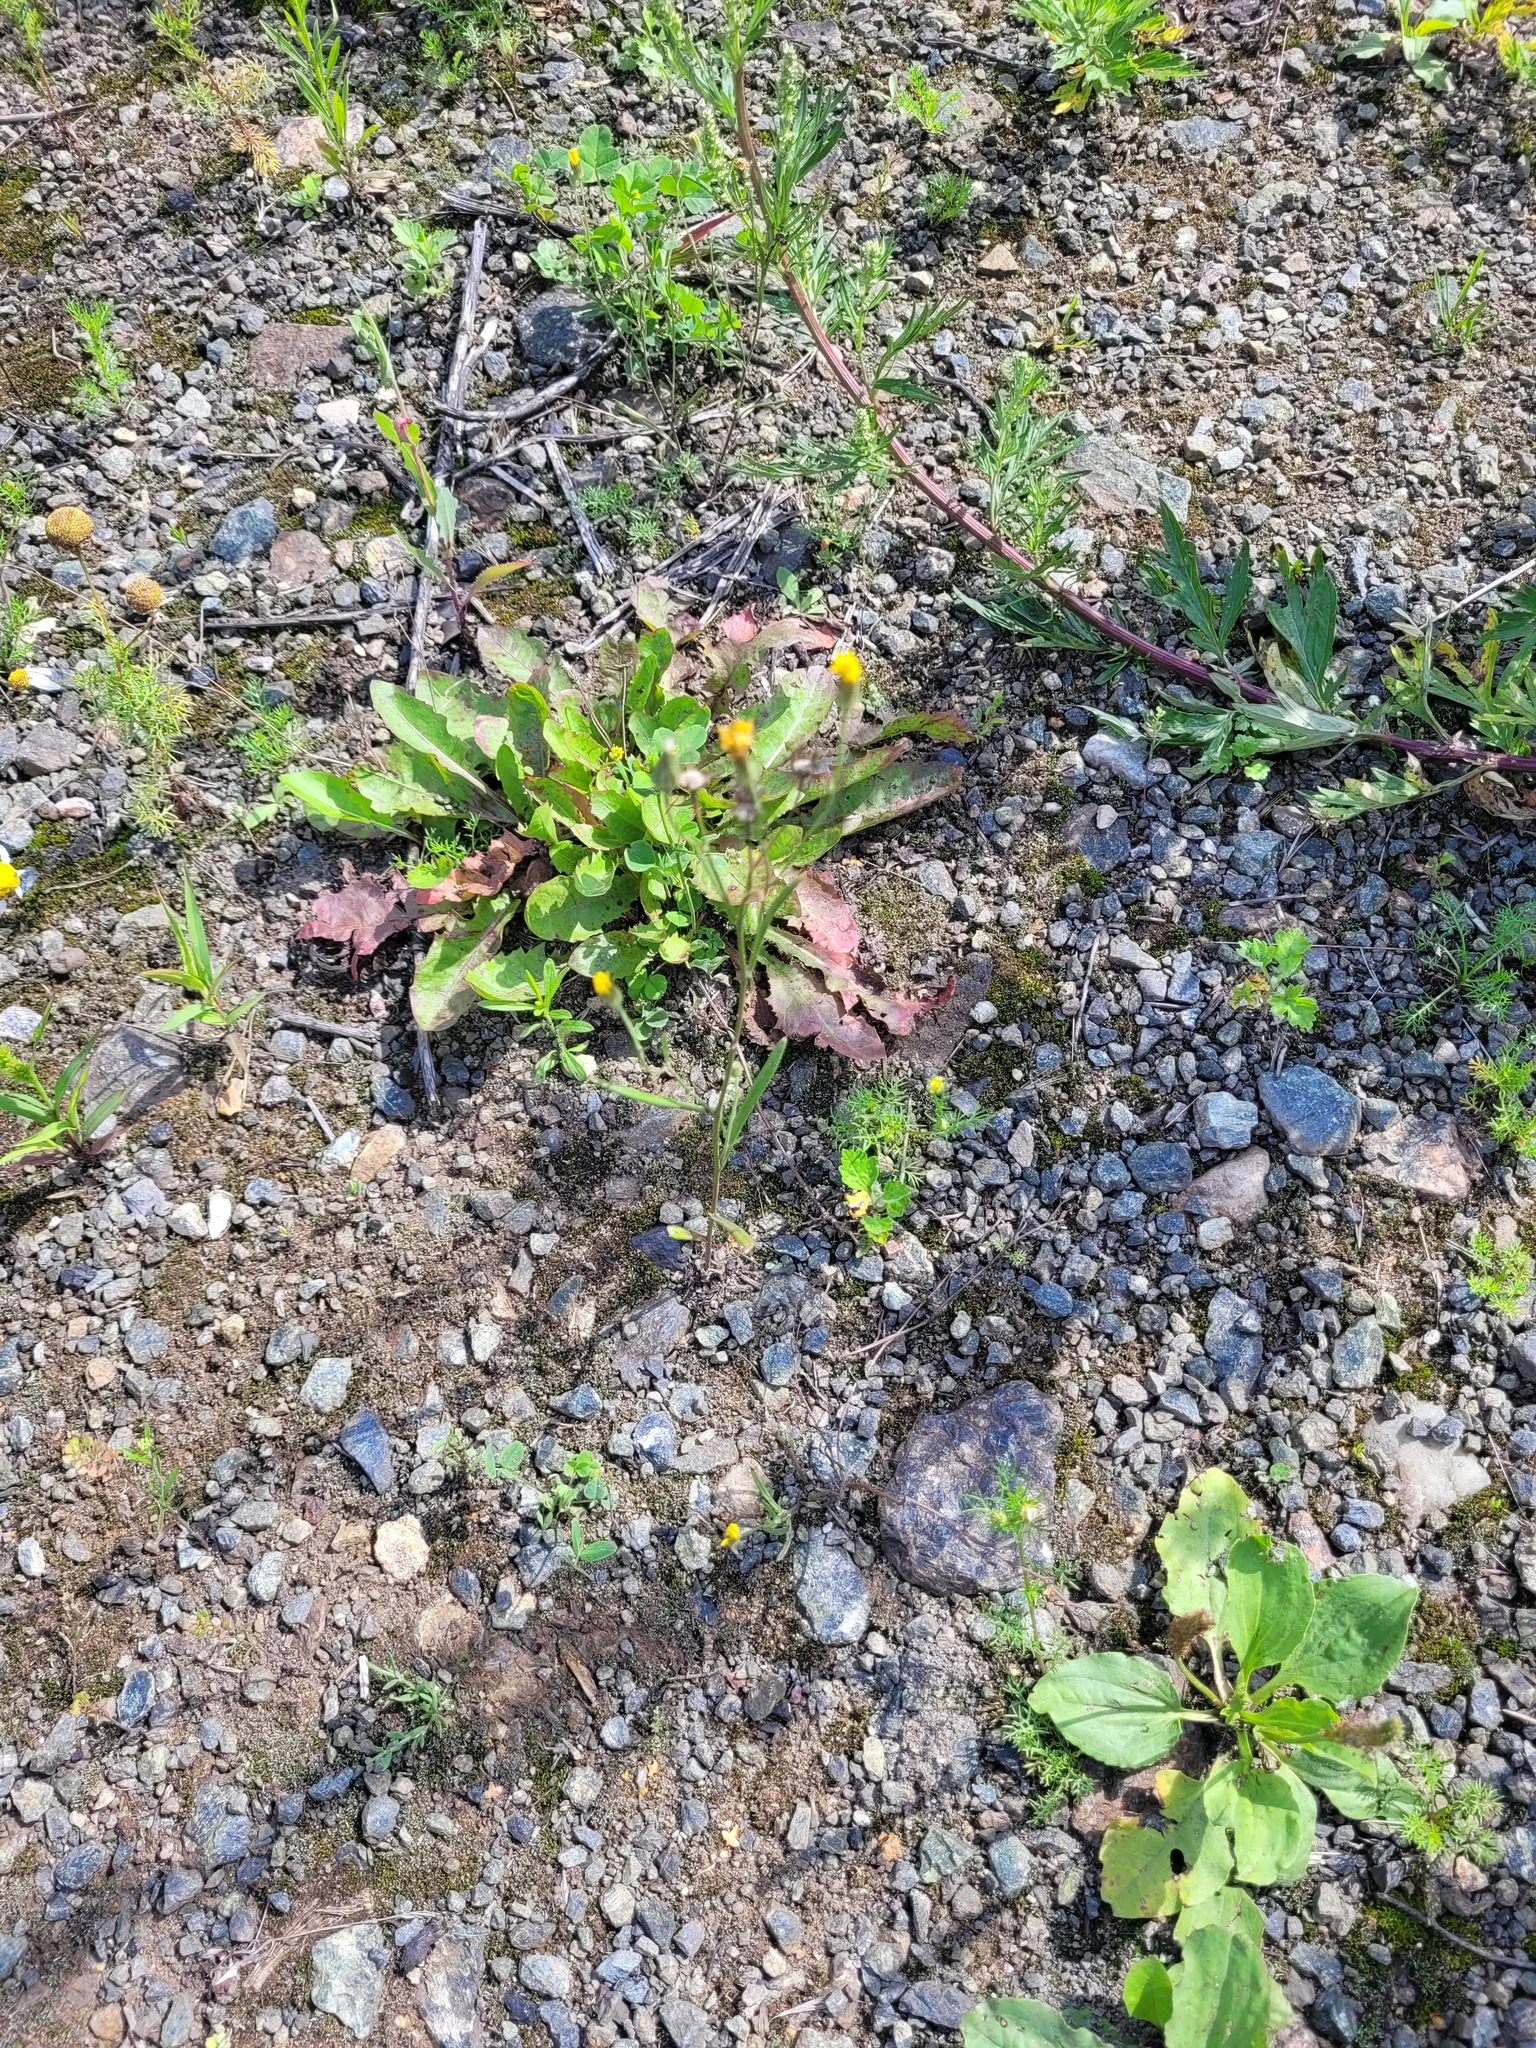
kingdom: Plantae
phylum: Tracheophyta
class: Magnoliopsida
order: Asterales
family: Asteraceae
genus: Crepis
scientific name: Crepis tectorum
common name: Narrow-leaved hawk's-beard
